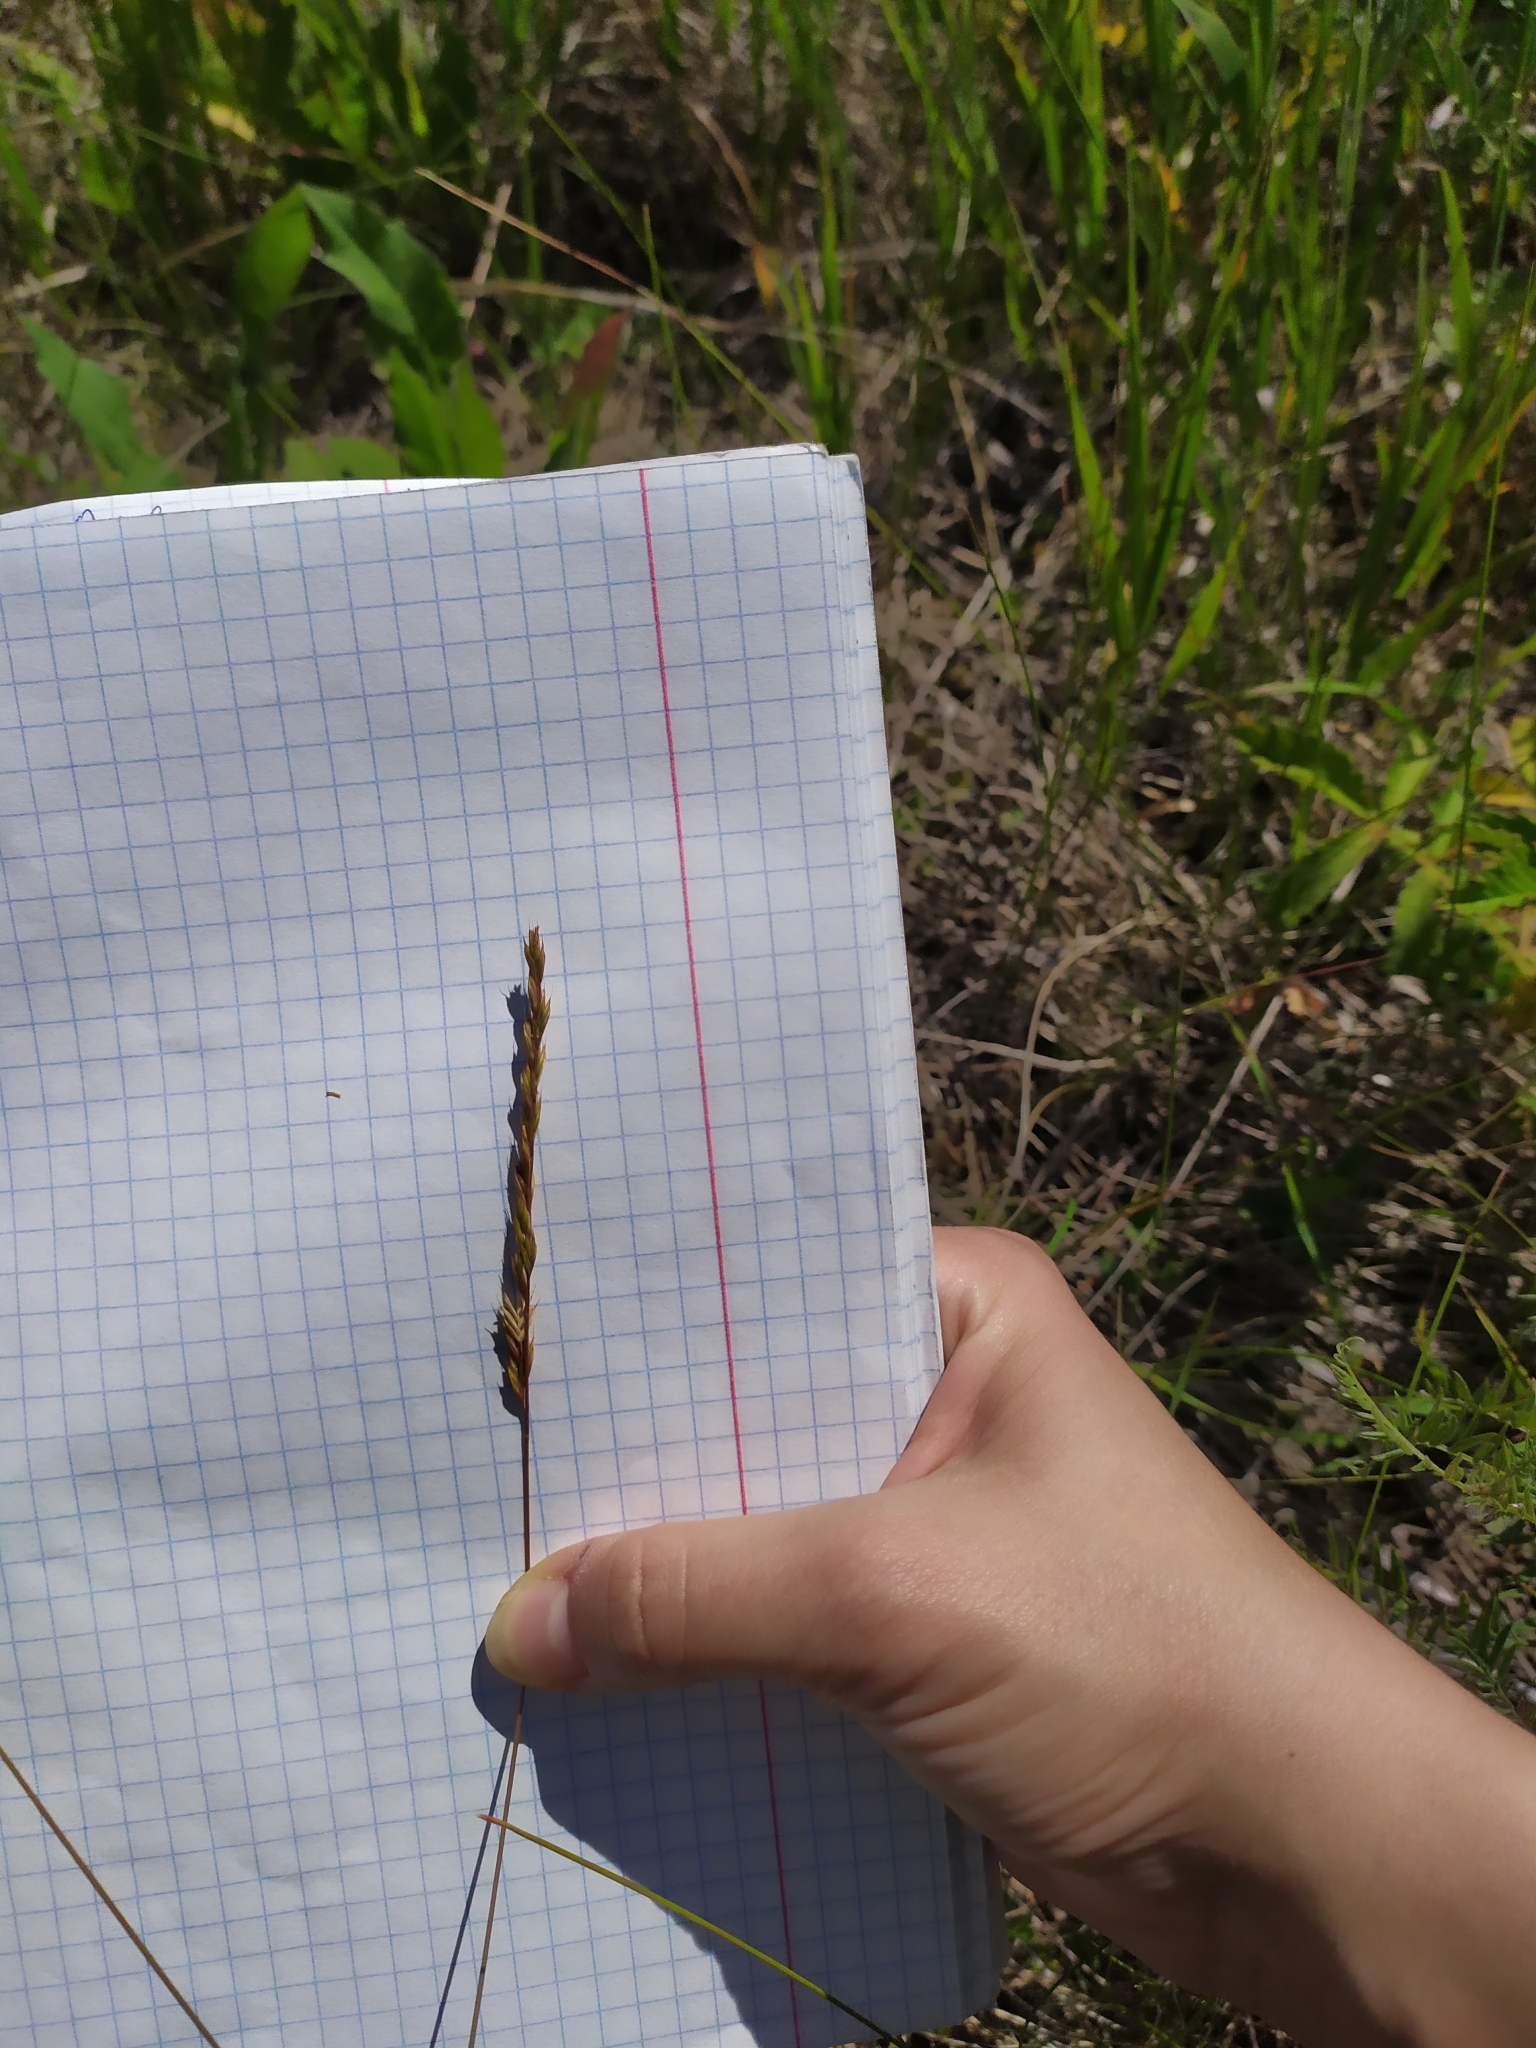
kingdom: Plantae
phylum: Tracheophyta
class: Liliopsida
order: Poales
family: Poaceae
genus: Festuca
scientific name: Festuca valesiaca
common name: Volga fescue
